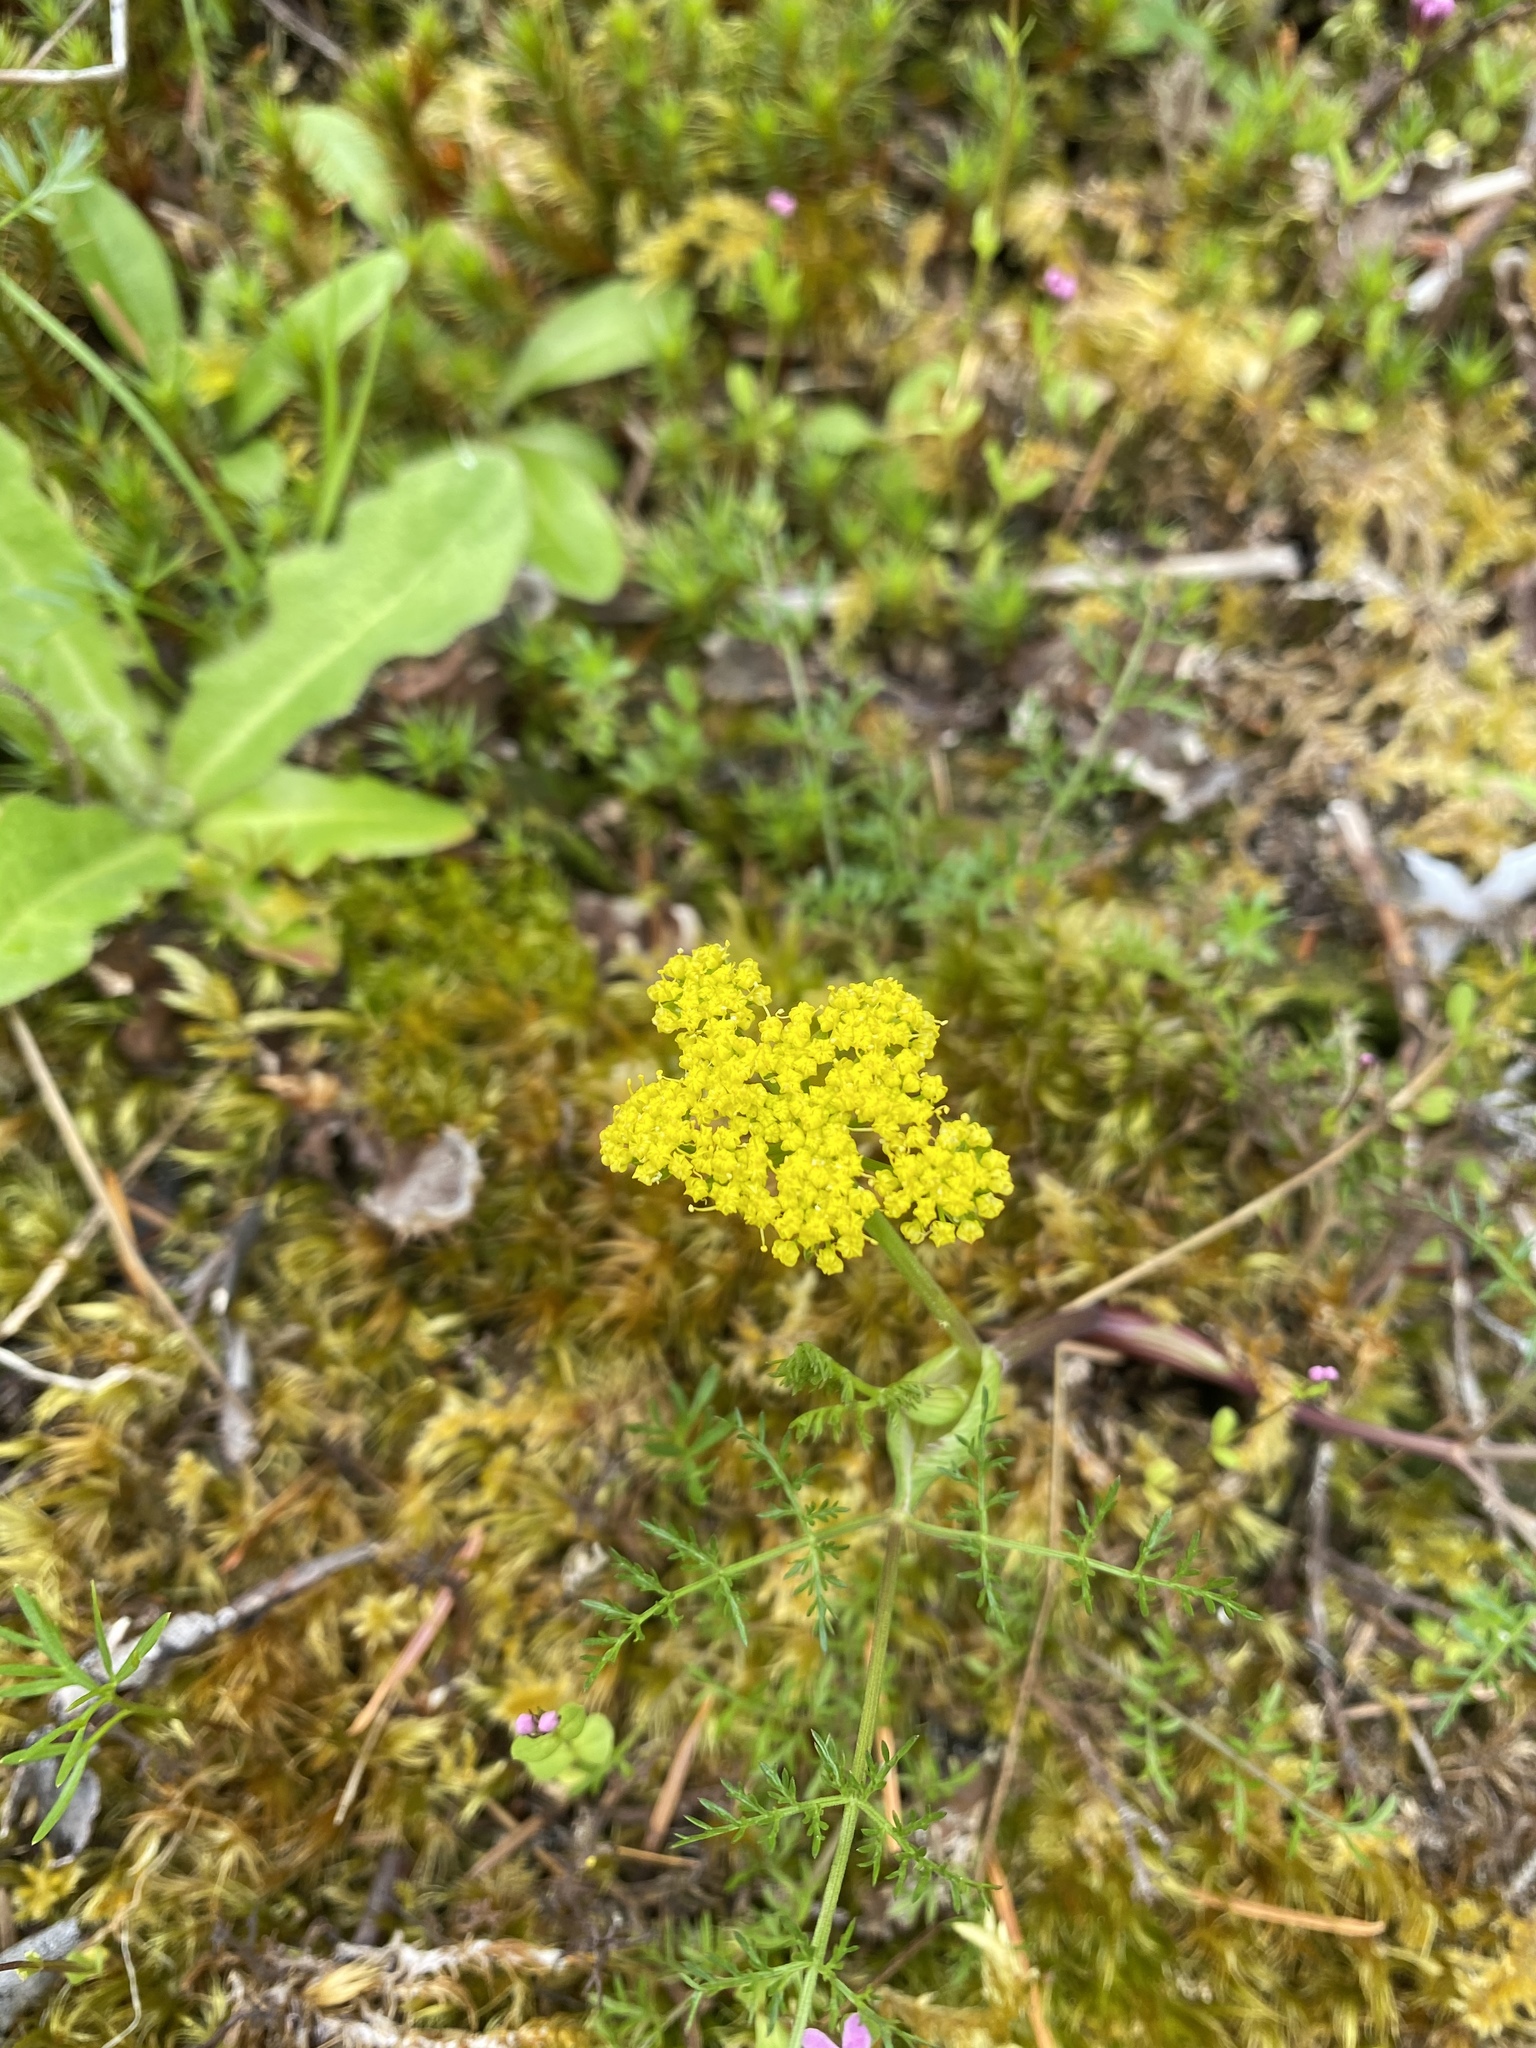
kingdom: Plantae
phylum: Tracheophyta
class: Magnoliopsida
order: Apiales
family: Apiaceae
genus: Lomatium
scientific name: Lomatium utriculatum
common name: Fine-leaf desert-parsley
